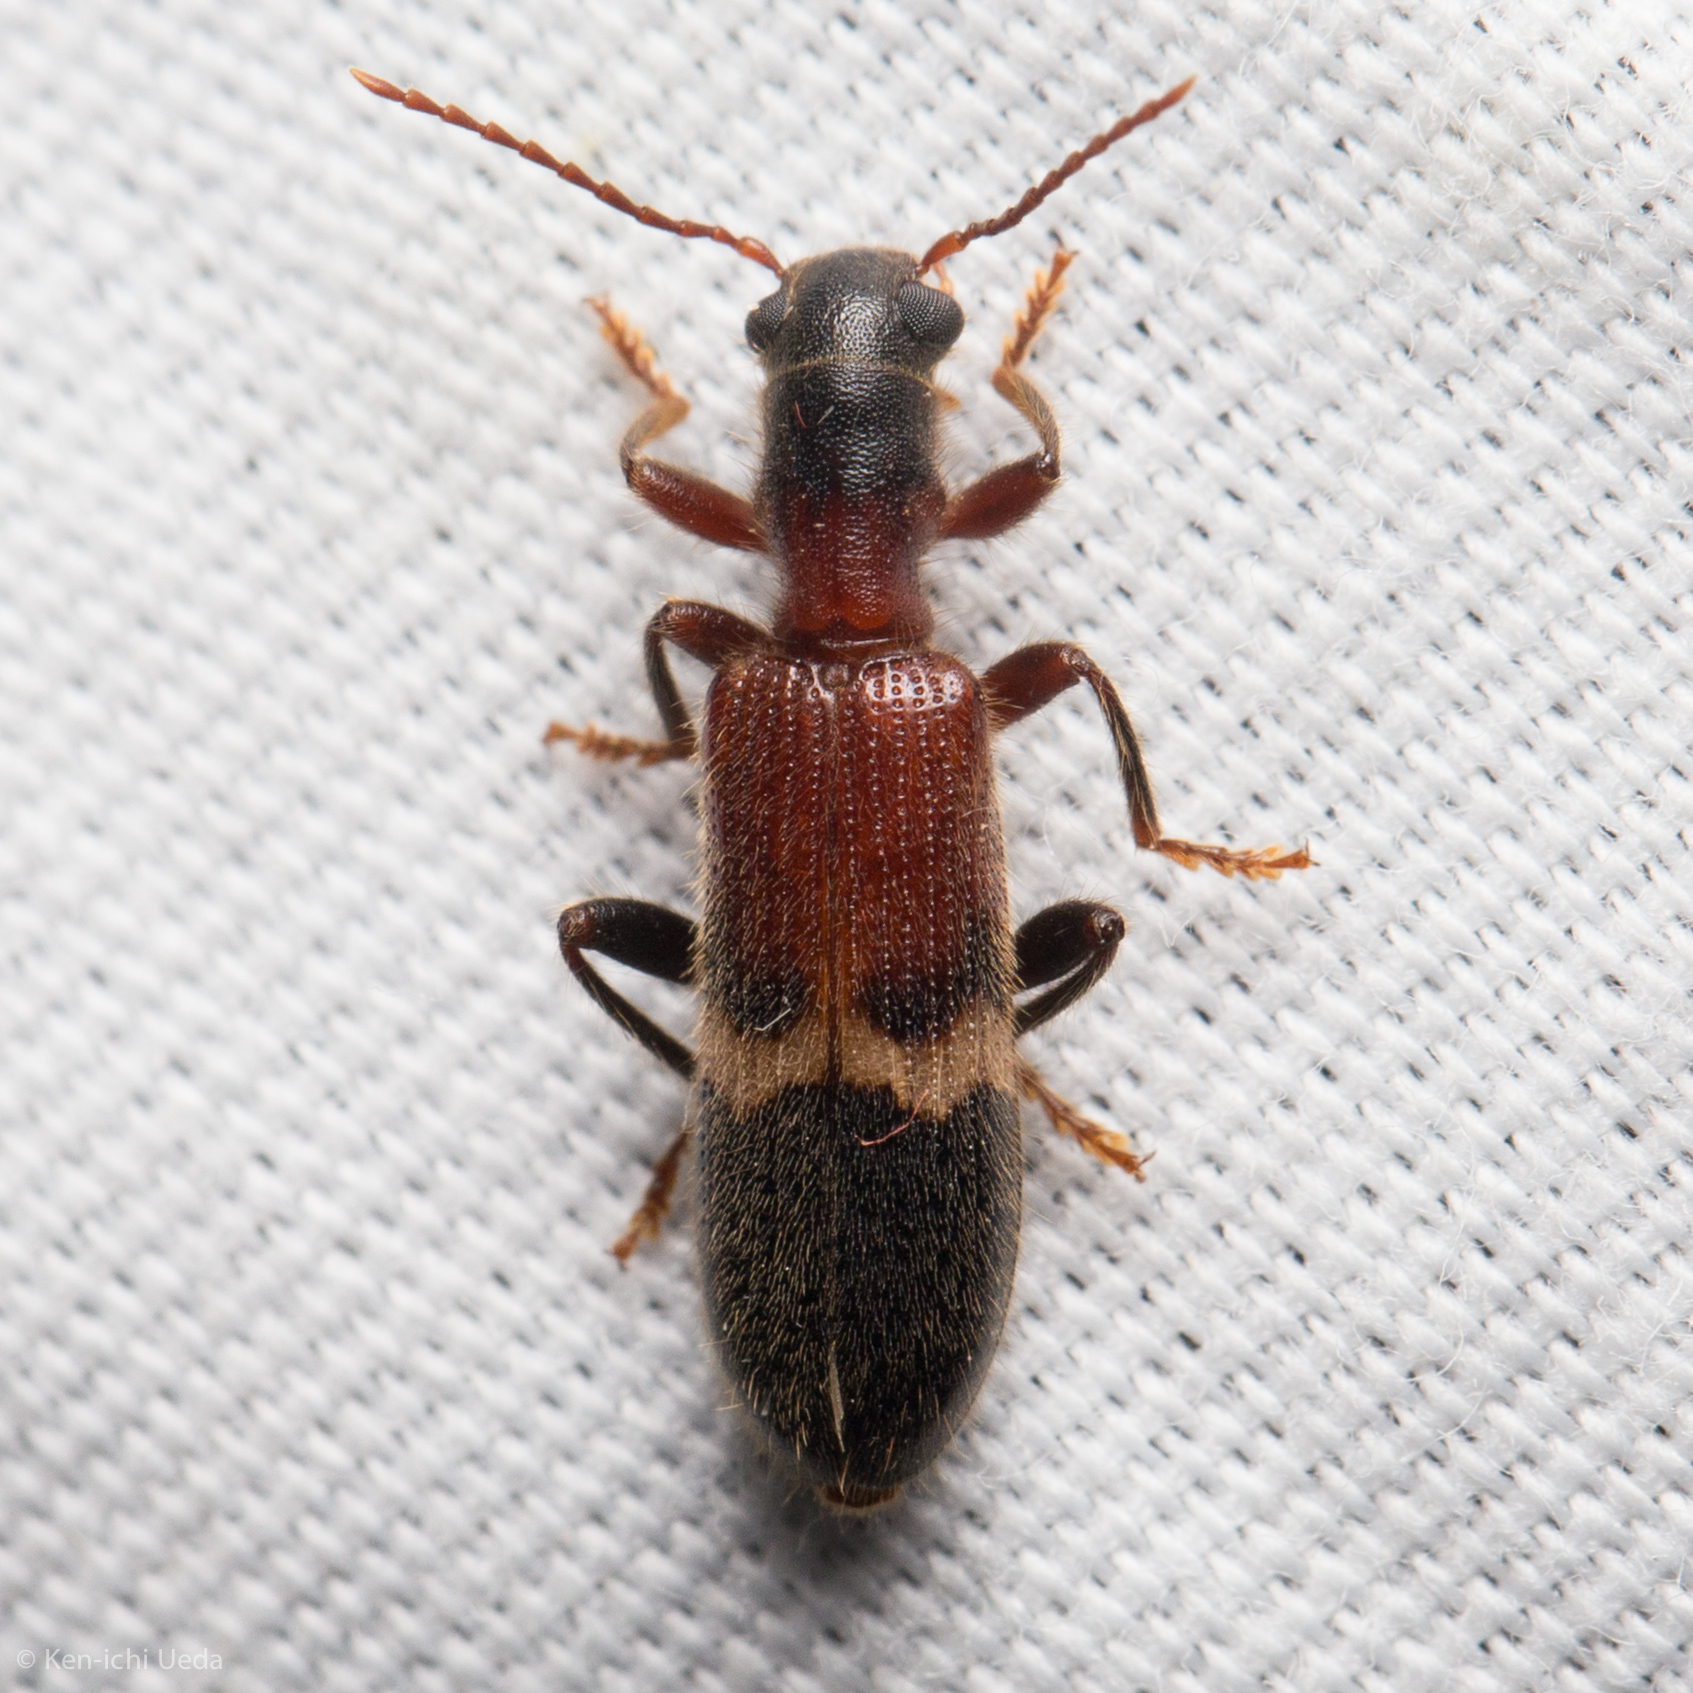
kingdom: Animalia
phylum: Arthropoda
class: Insecta
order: Coleoptera
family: Cleridae
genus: Cymatodera
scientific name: Cymatodera tricolor
